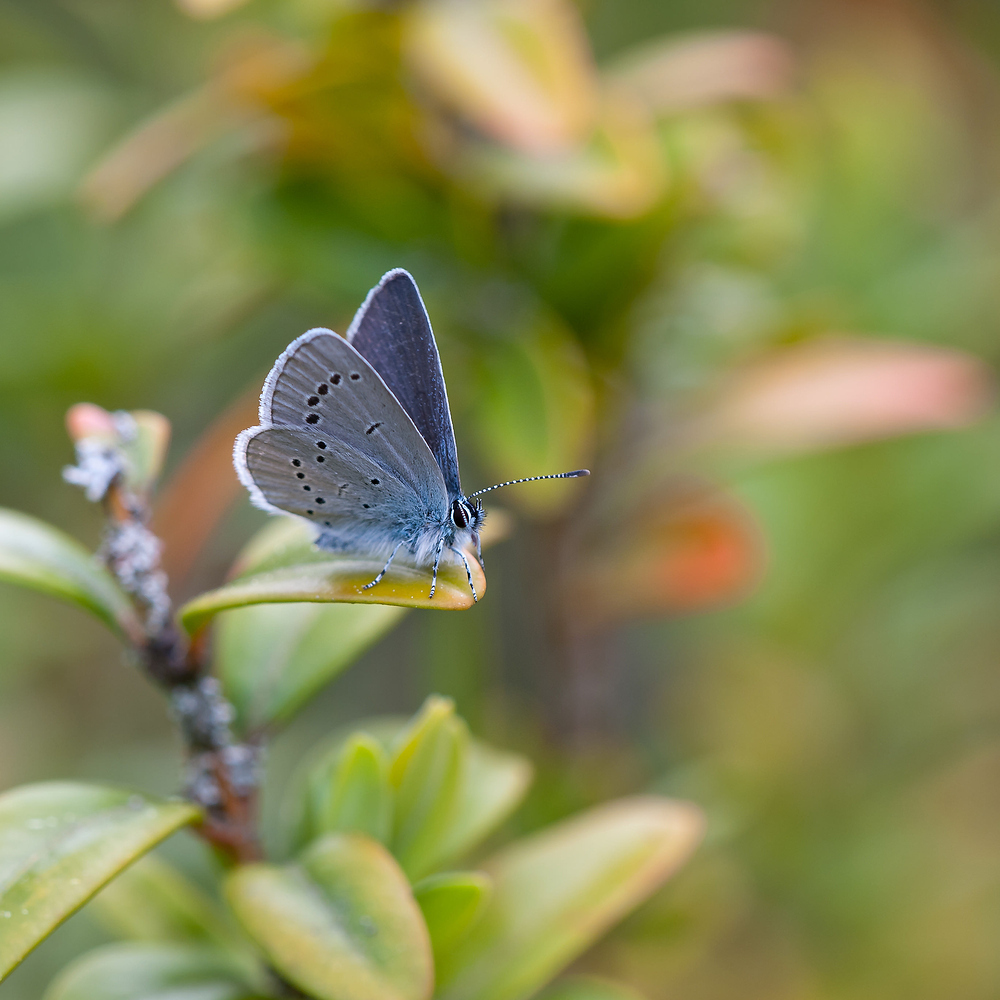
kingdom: Animalia
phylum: Arthropoda
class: Insecta
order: Lepidoptera
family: Lycaenidae
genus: Cupido
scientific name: Cupido minimus
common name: Small blue
